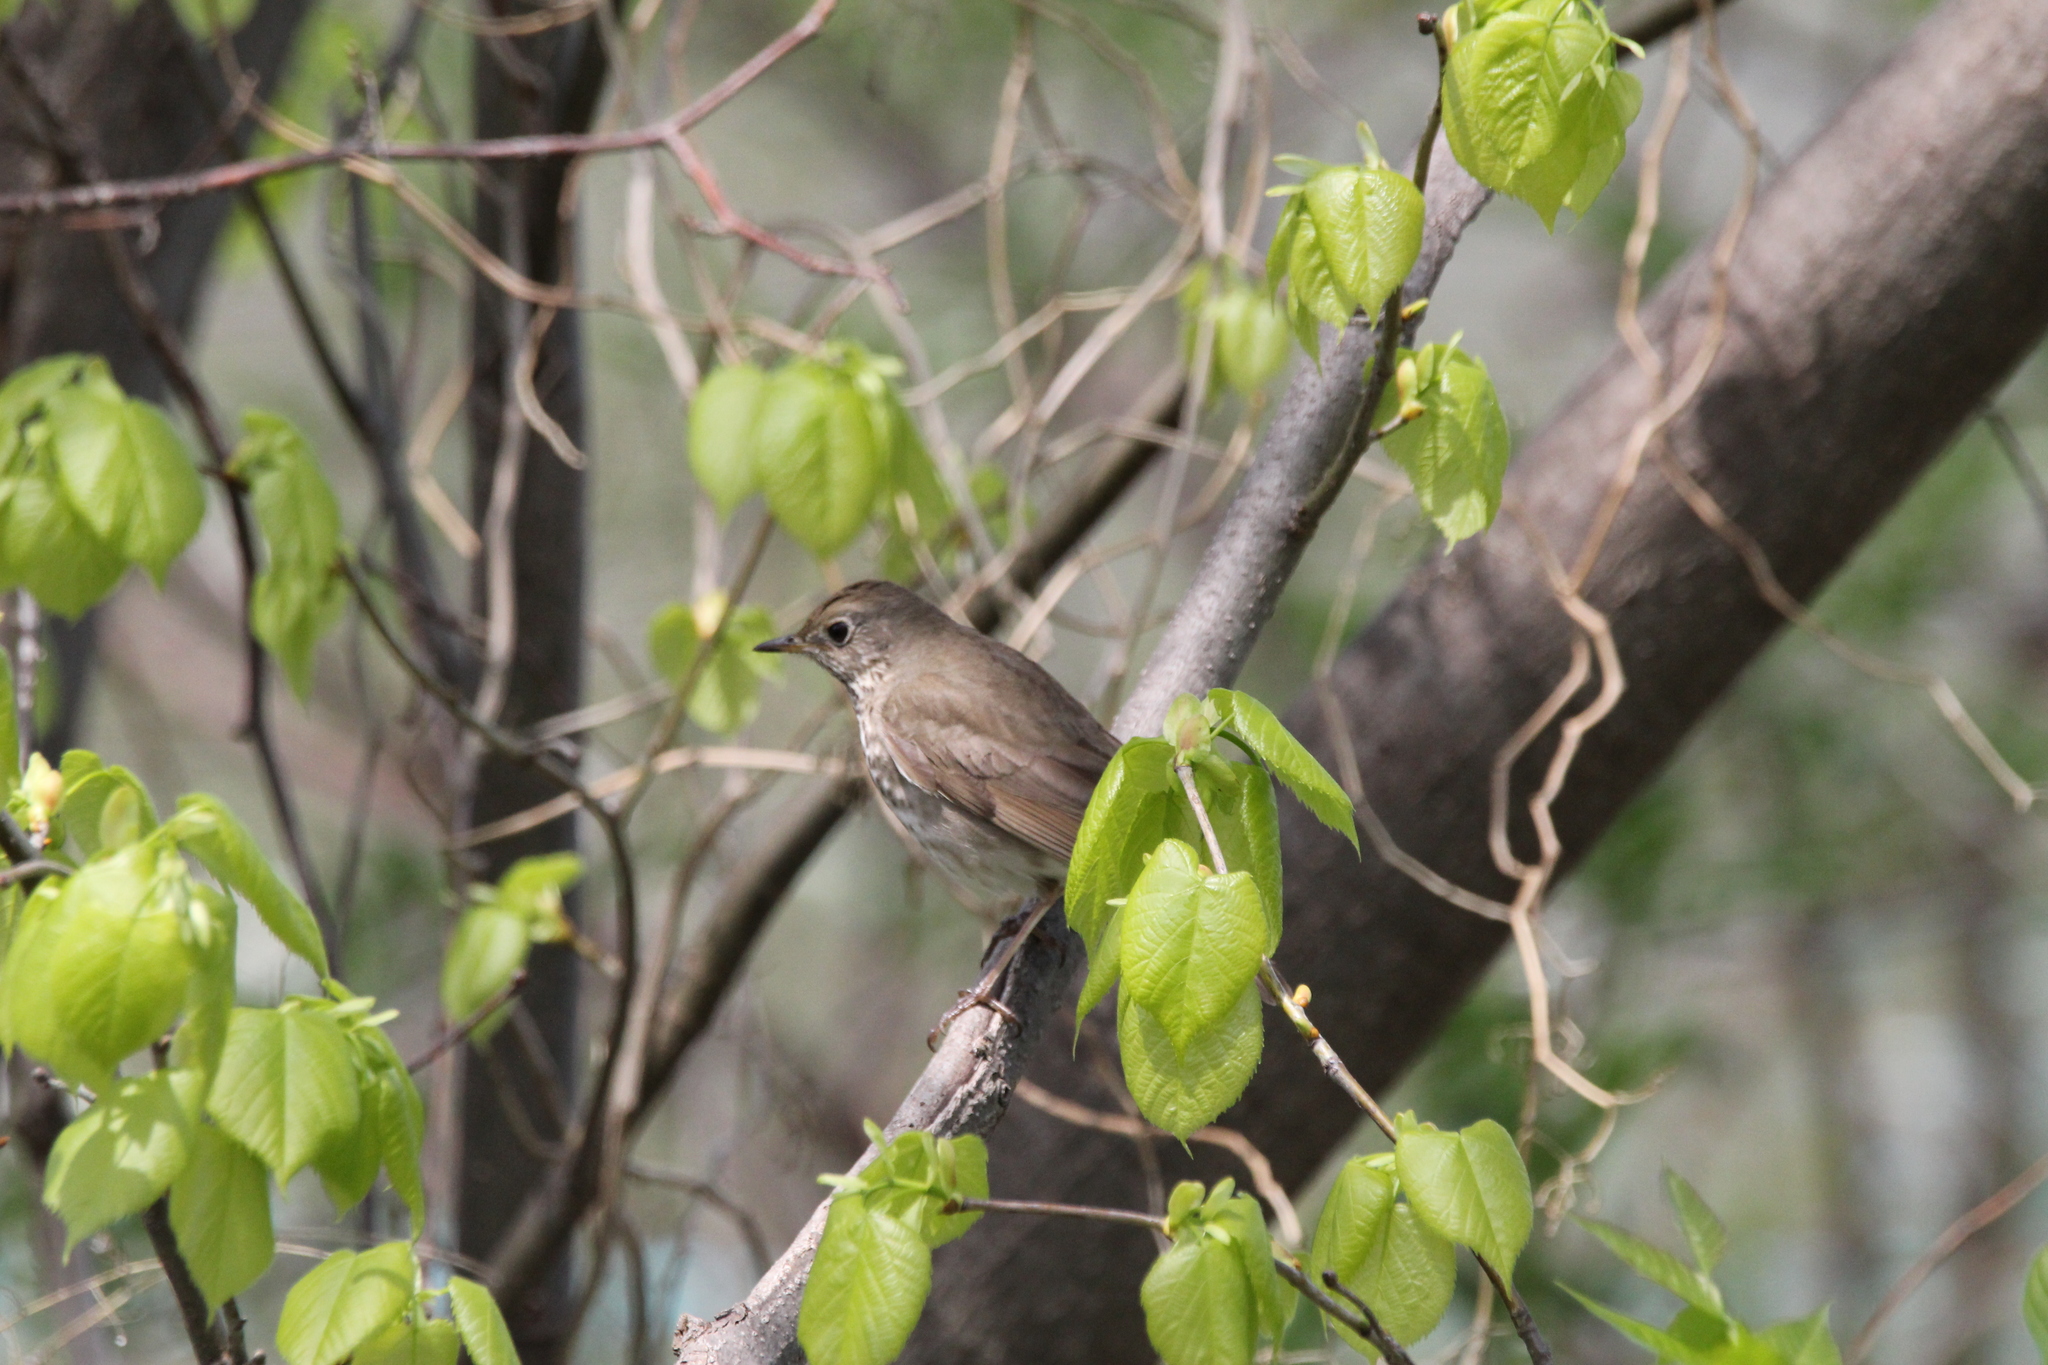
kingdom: Animalia
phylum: Chordata
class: Aves
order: Passeriformes
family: Turdidae
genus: Catharus
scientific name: Catharus minimus
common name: Grey-cheeked thrush
